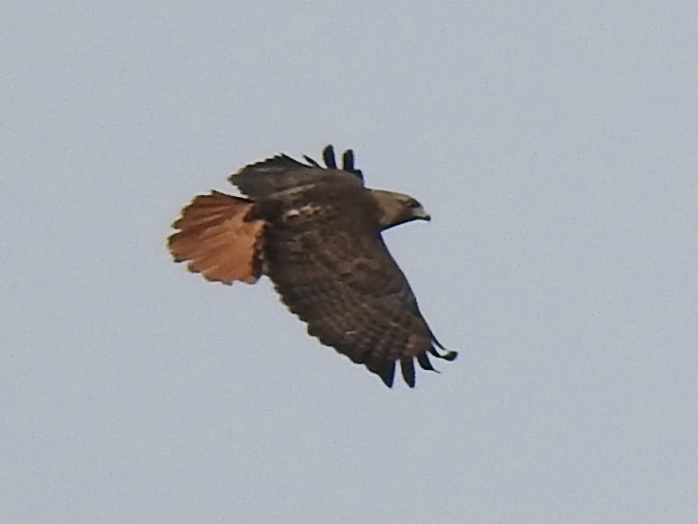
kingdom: Animalia
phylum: Chordata
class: Aves
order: Accipitriformes
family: Accipitridae
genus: Buteo
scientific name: Buteo jamaicensis
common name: Red-tailed hawk
